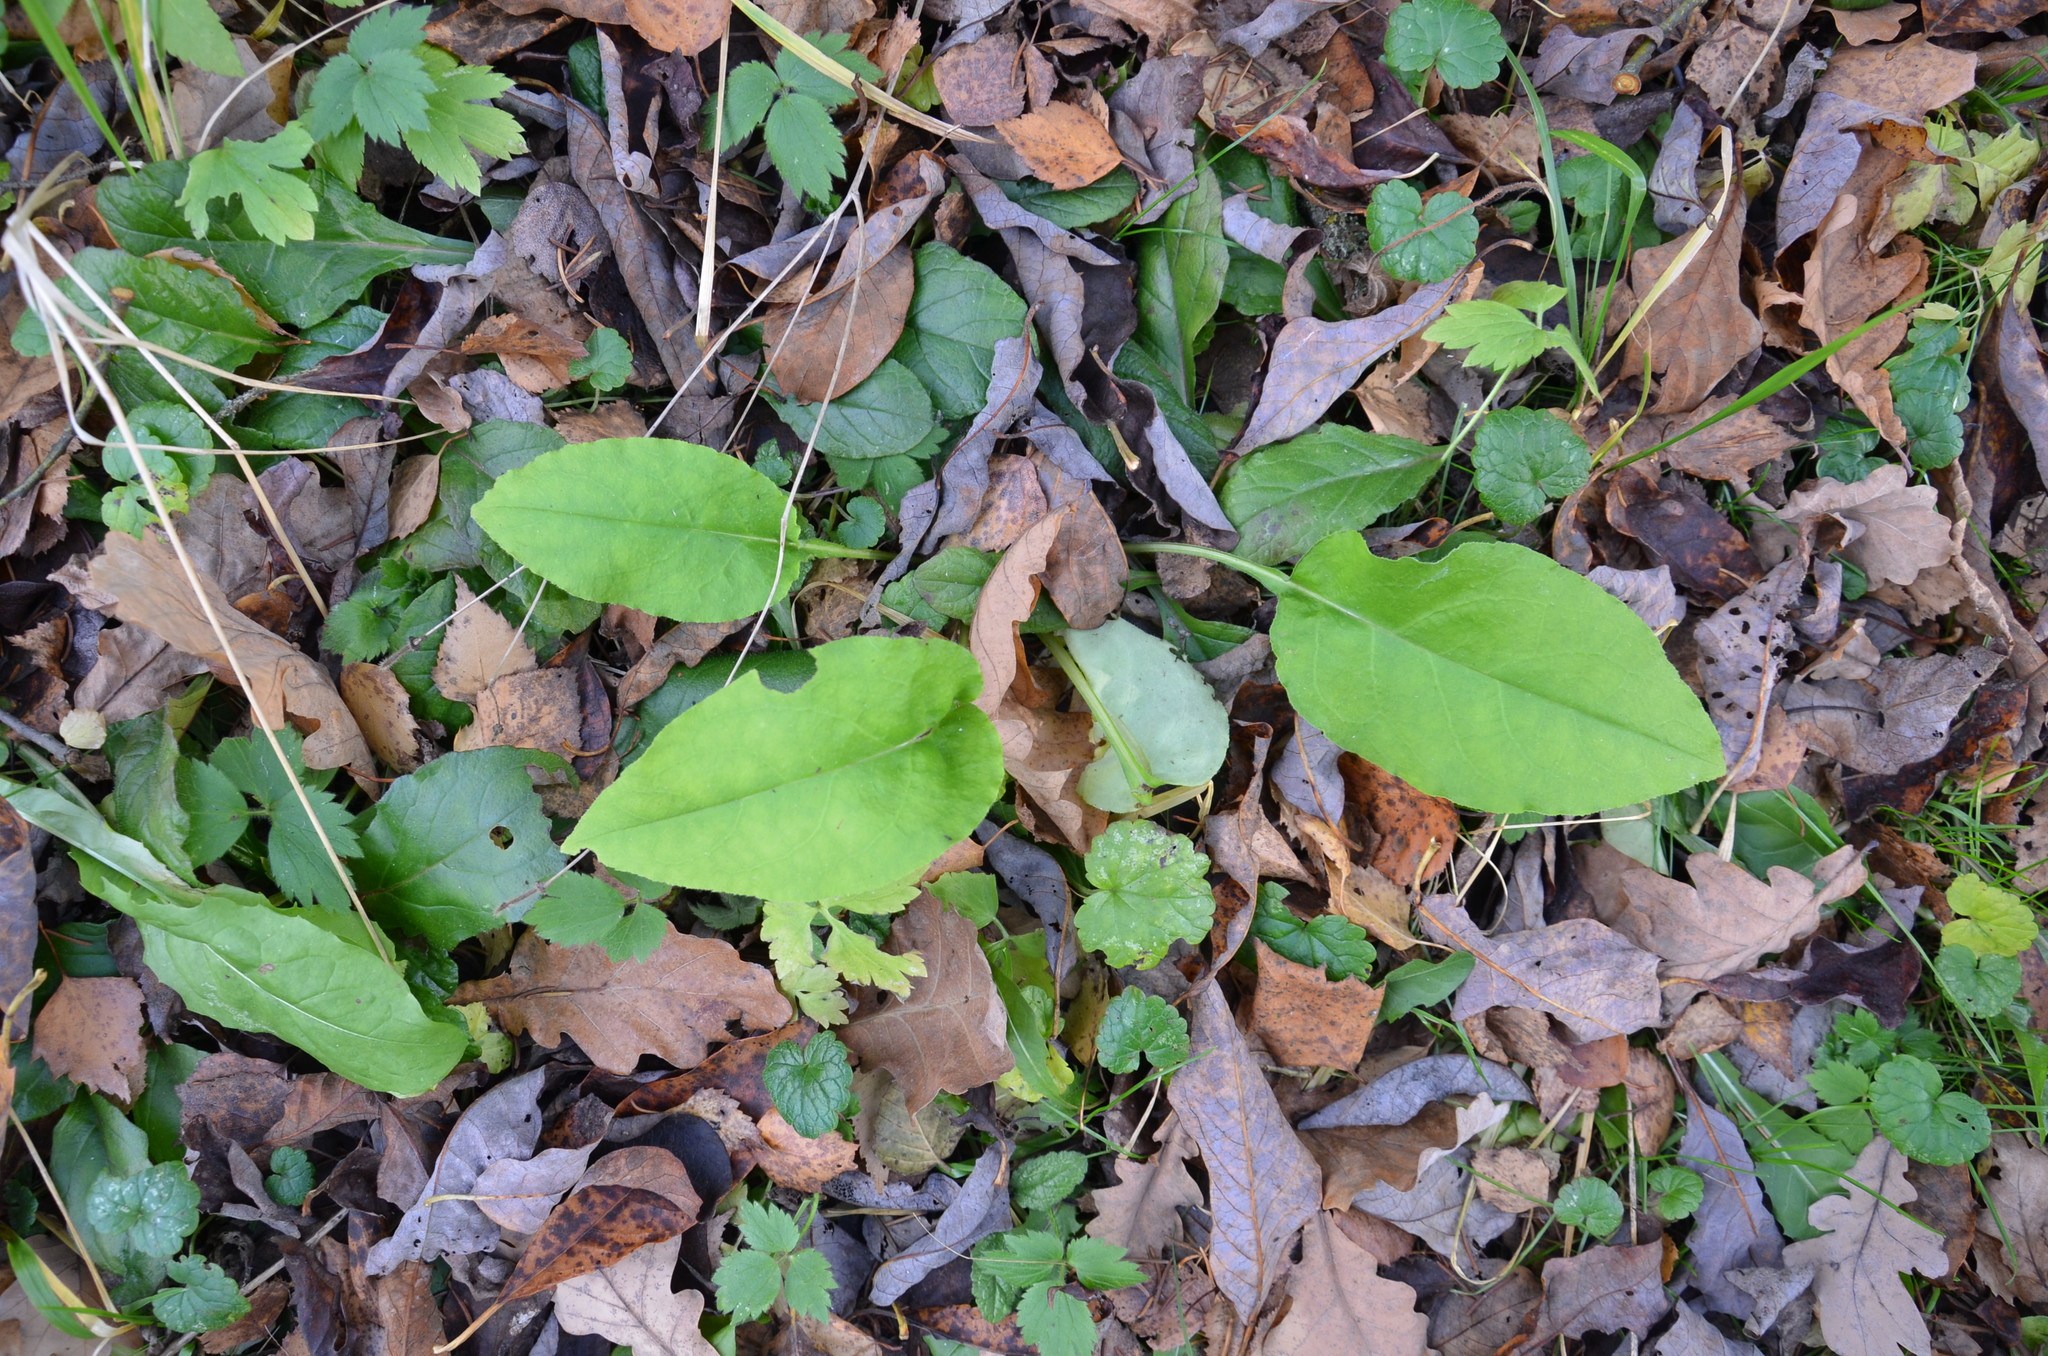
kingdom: Plantae
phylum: Tracheophyta
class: Magnoliopsida
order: Boraginales
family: Boraginaceae
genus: Pulmonaria
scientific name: Pulmonaria obscura
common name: Suffolk lungwort
